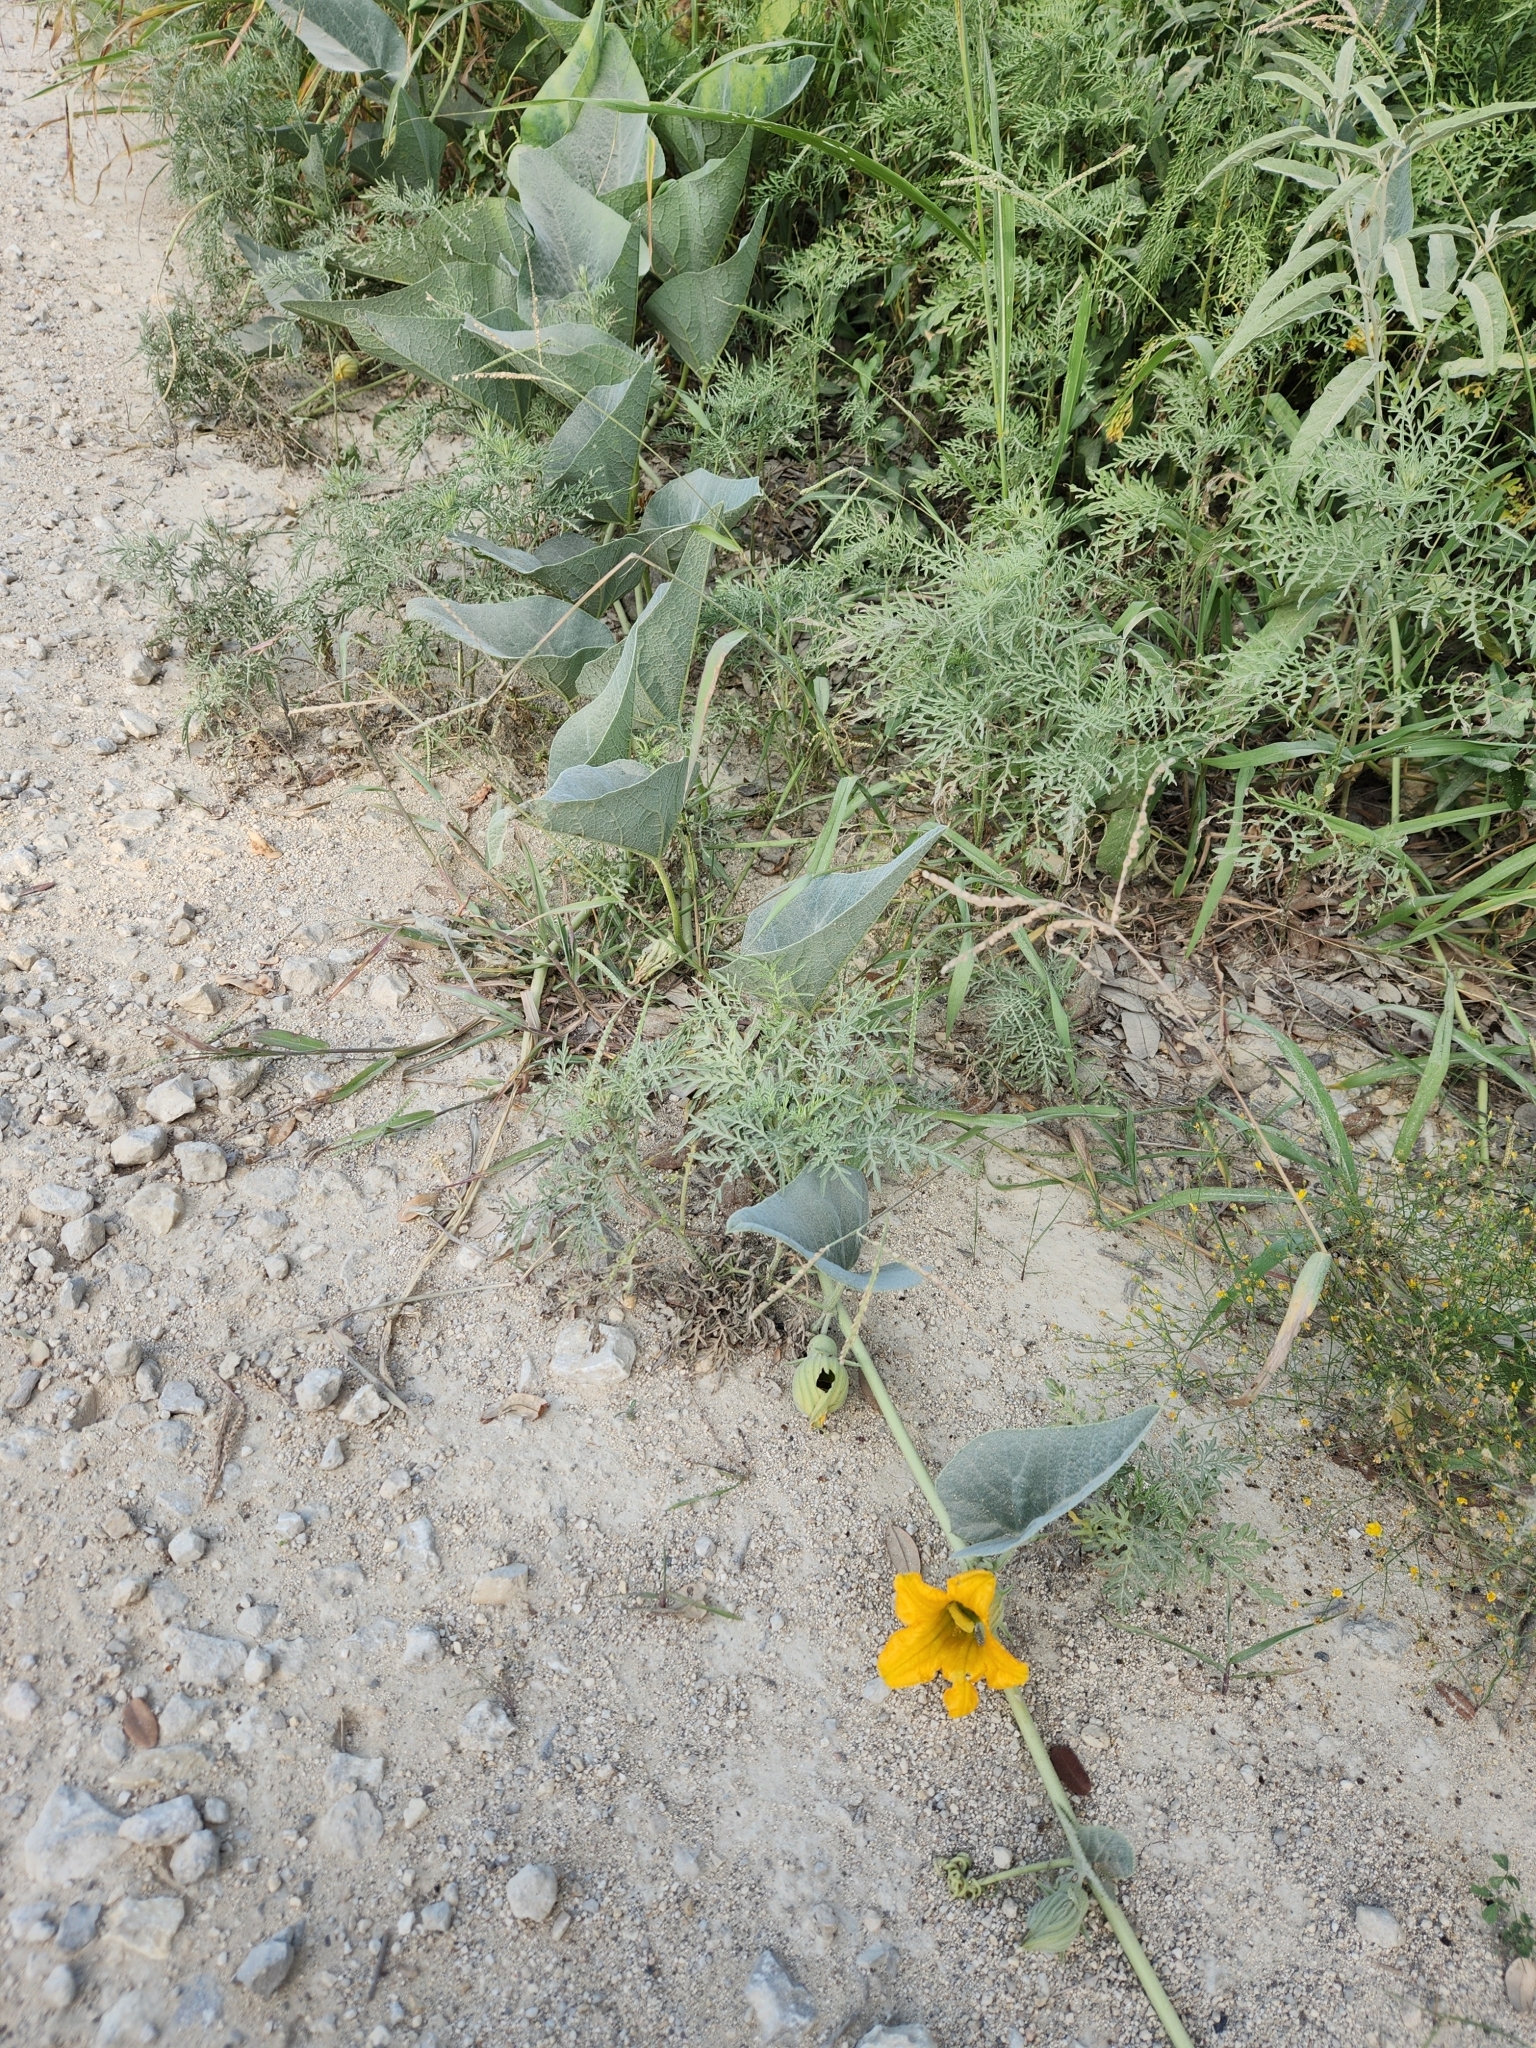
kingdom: Plantae
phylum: Tracheophyta
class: Magnoliopsida
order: Cucurbitales
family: Cucurbitaceae
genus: Cucurbita
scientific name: Cucurbita foetidissima
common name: Buffalo gourd
